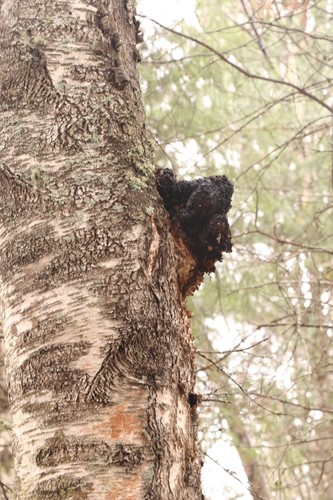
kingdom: Fungi
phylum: Basidiomycota
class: Agaricomycetes
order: Hymenochaetales
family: Hymenochaetaceae
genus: Inonotus
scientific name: Inonotus obliquus
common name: Chaga
